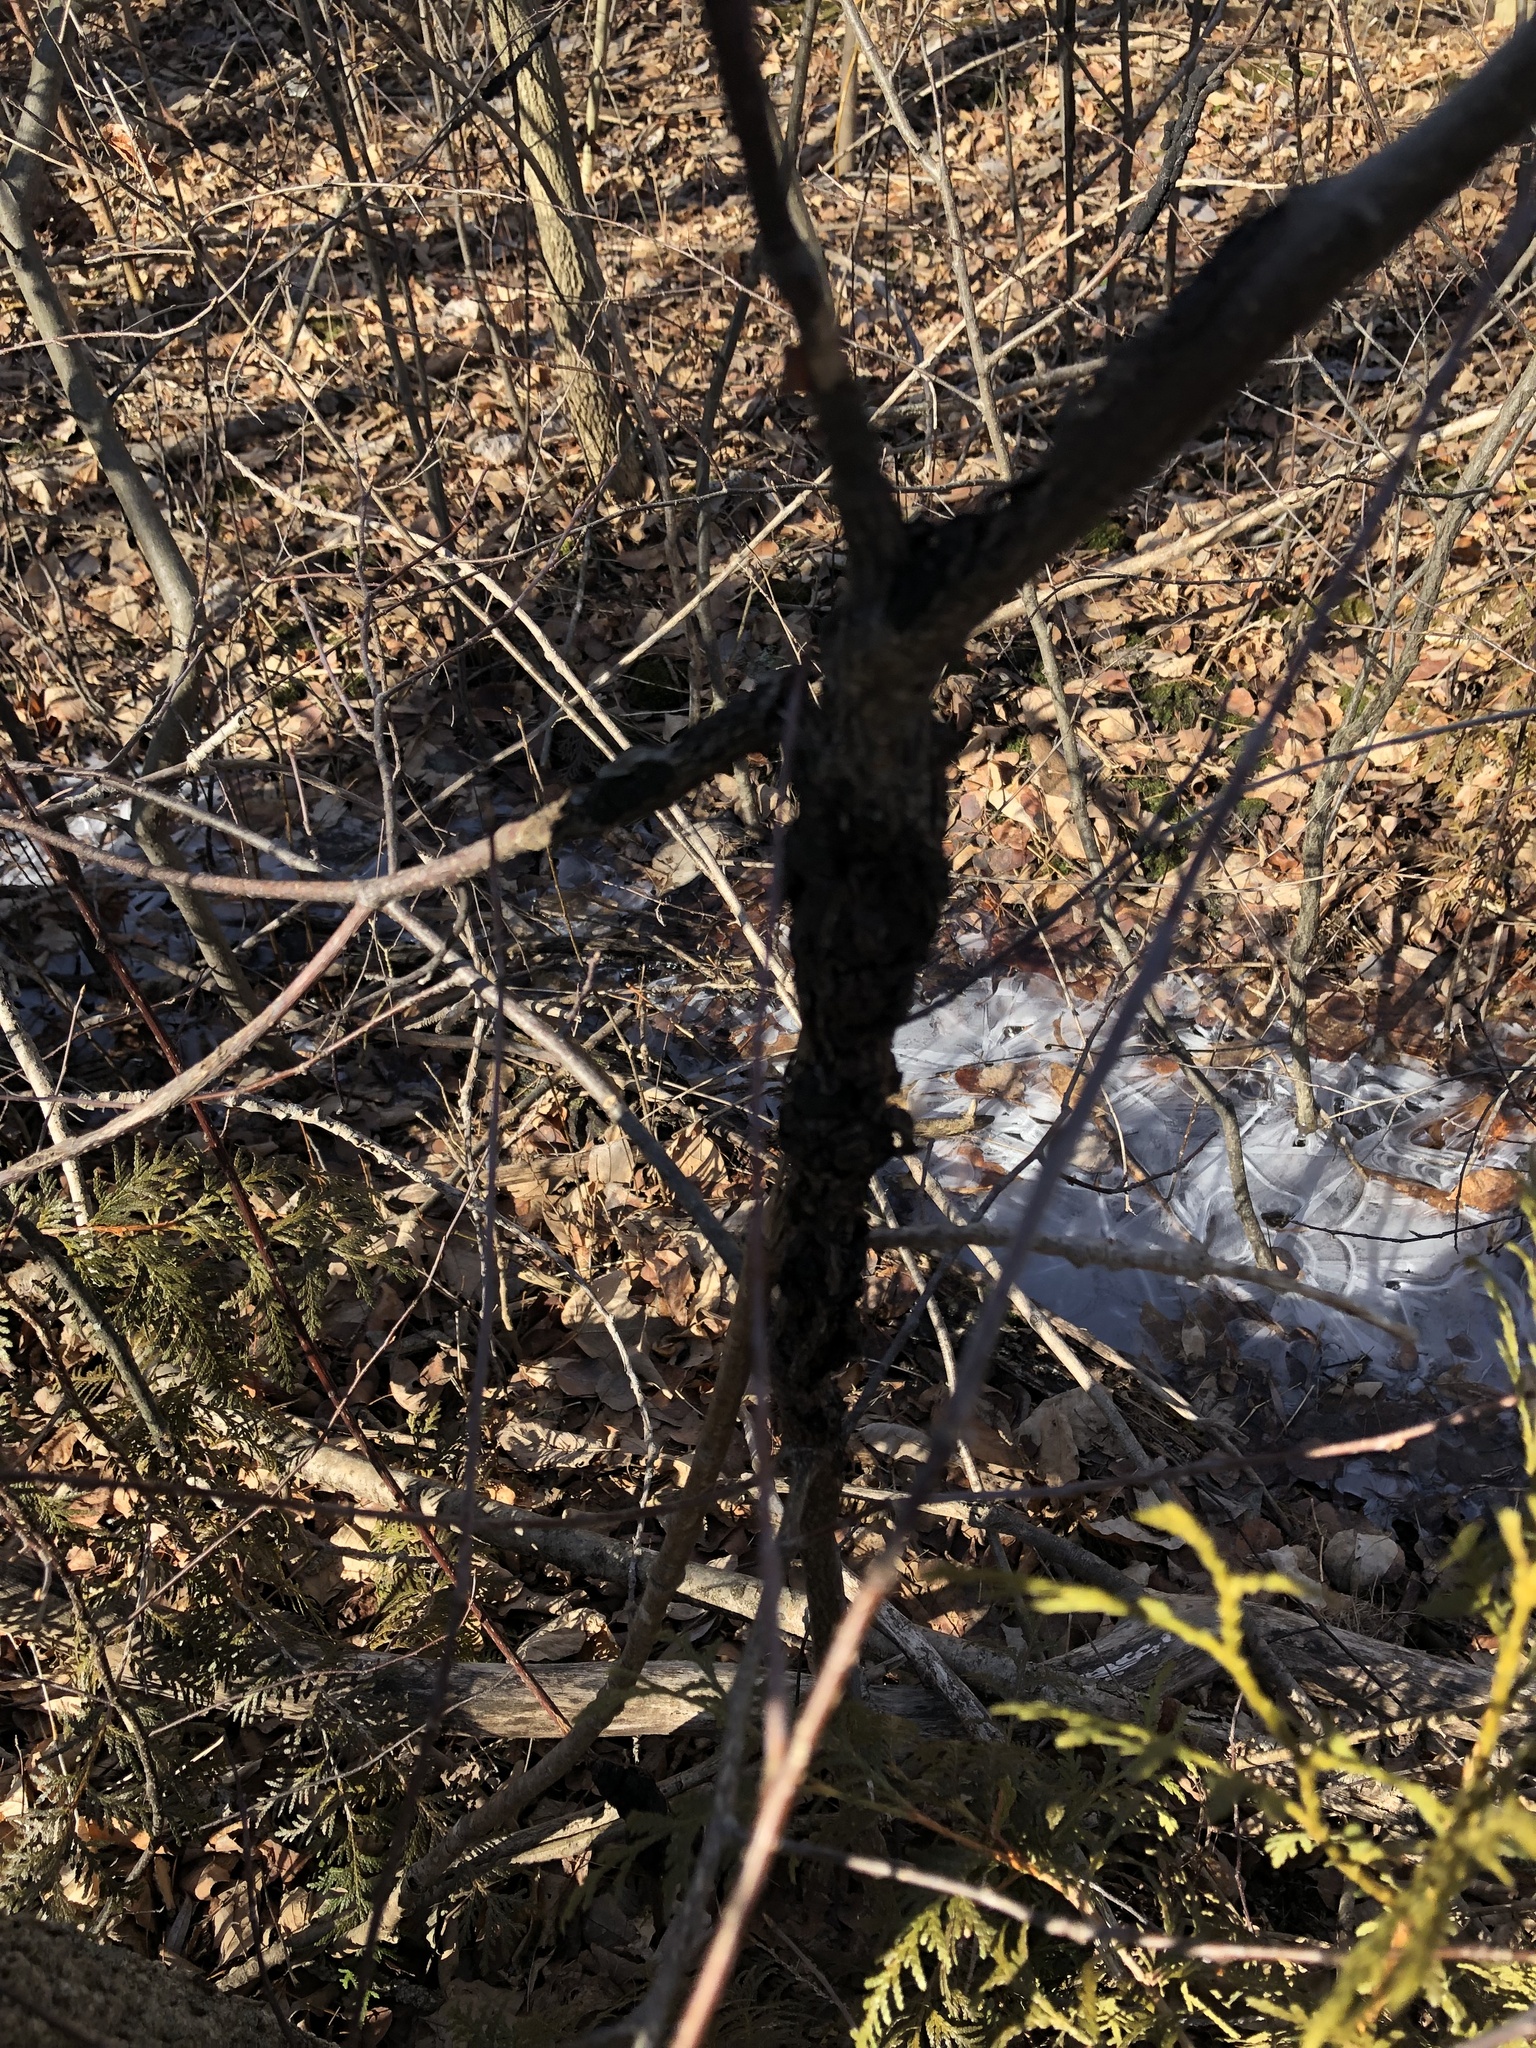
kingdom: Fungi
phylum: Ascomycota
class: Dothideomycetes
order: Venturiales
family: Venturiaceae
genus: Apiosporina
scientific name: Apiosporina morbosa
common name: Black knot
